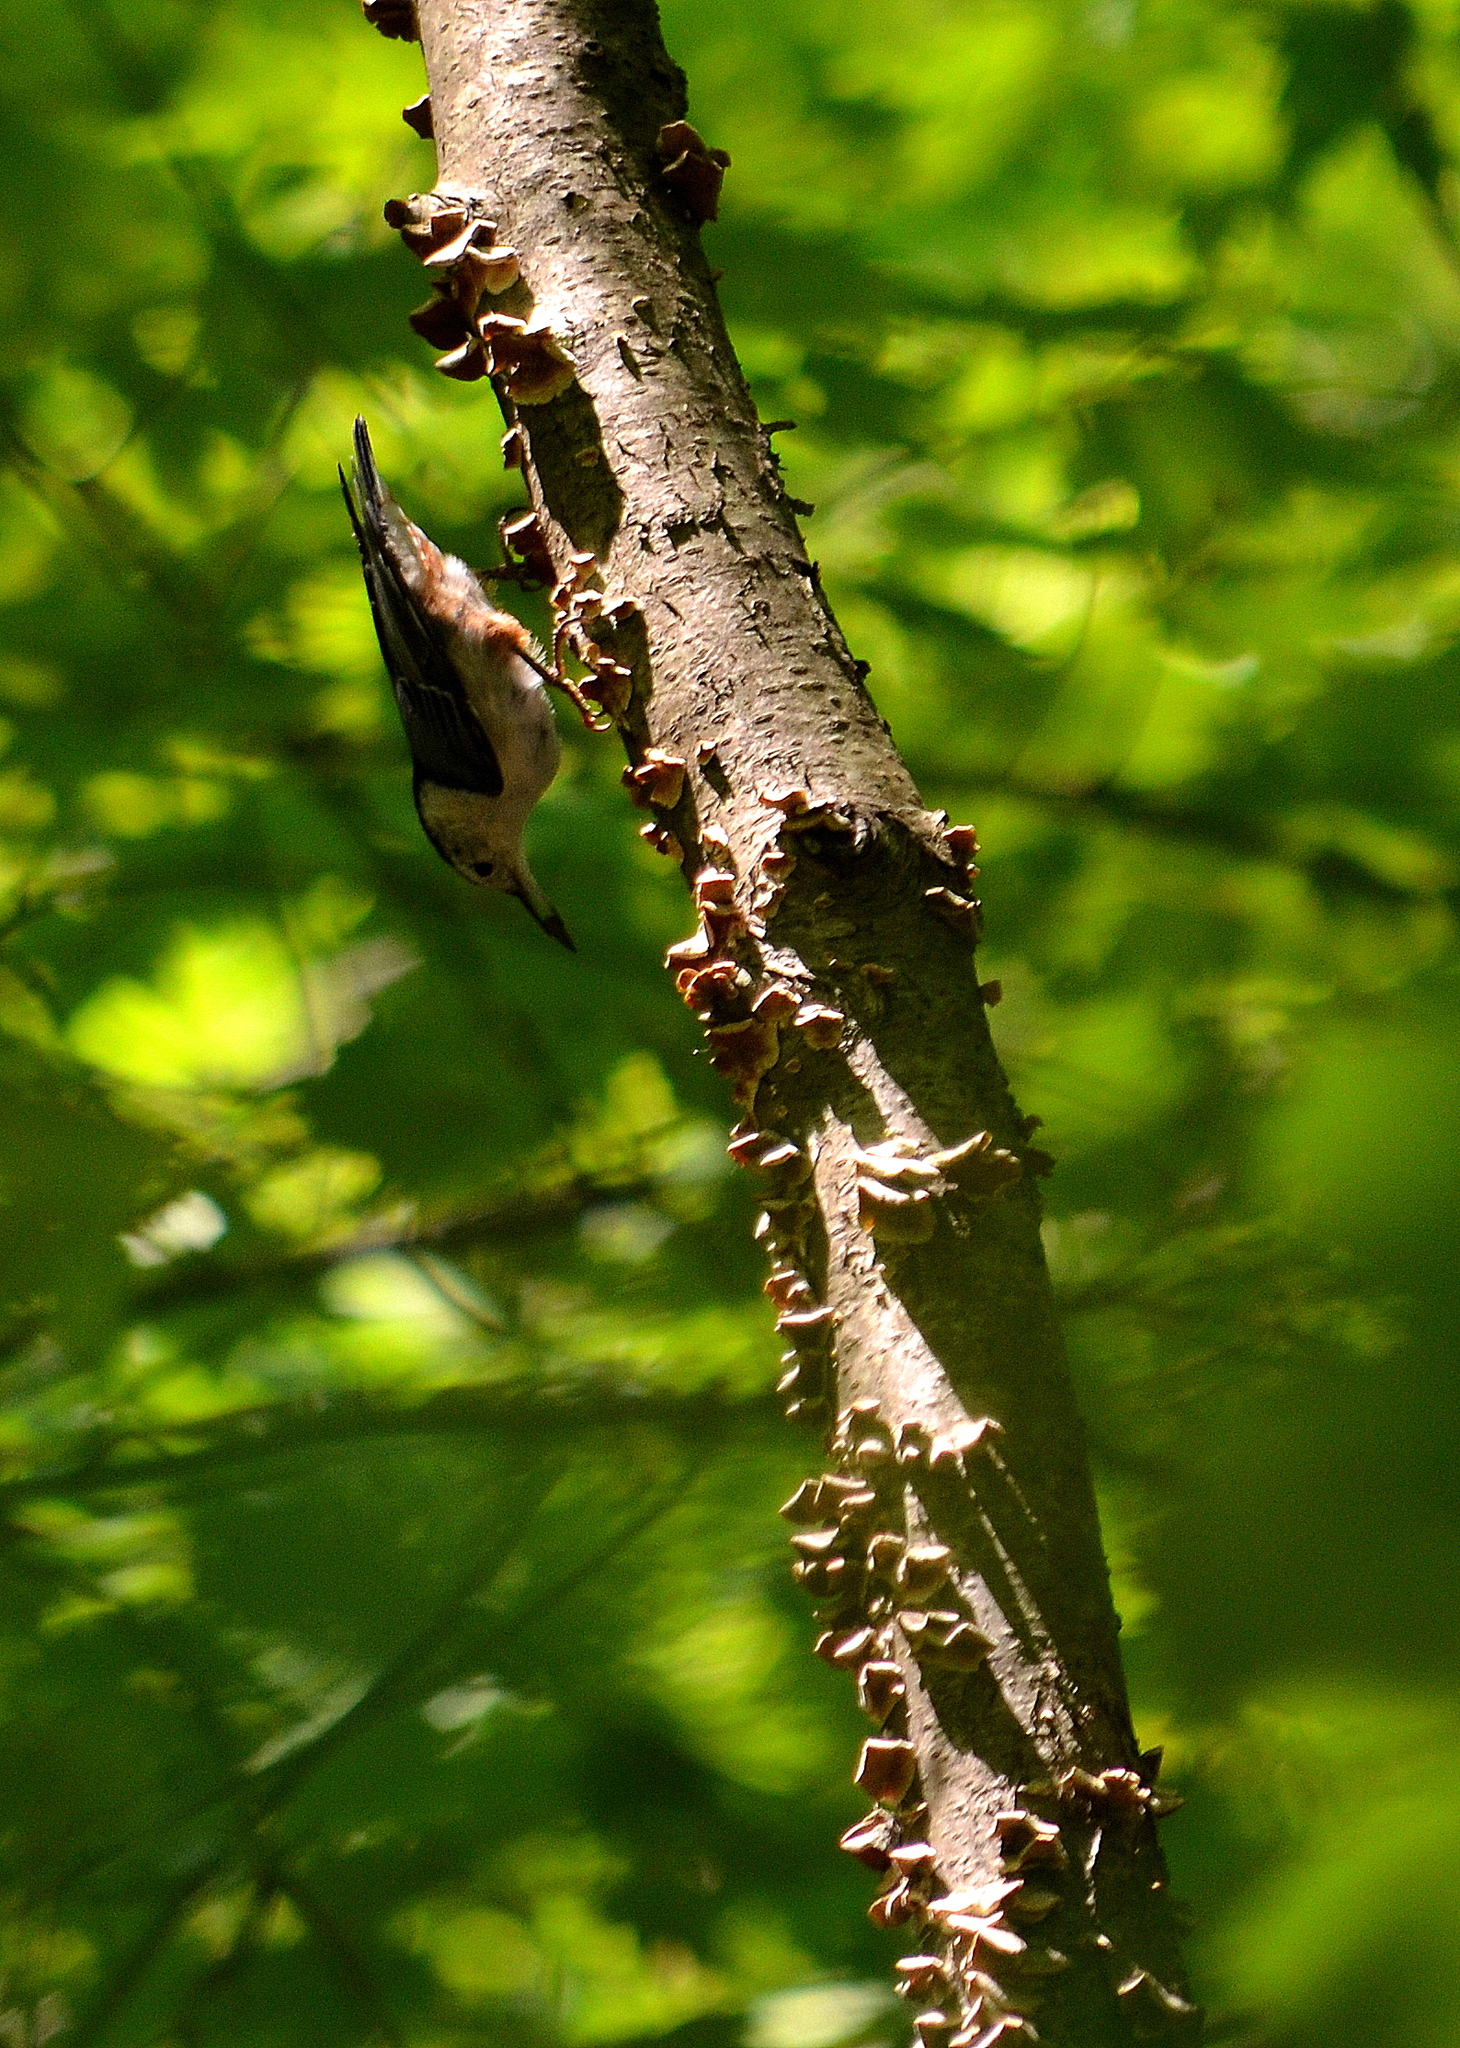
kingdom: Animalia
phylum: Chordata
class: Aves
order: Passeriformes
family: Sittidae
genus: Sitta
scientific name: Sitta carolinensis
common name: White-breasted nuthatch
